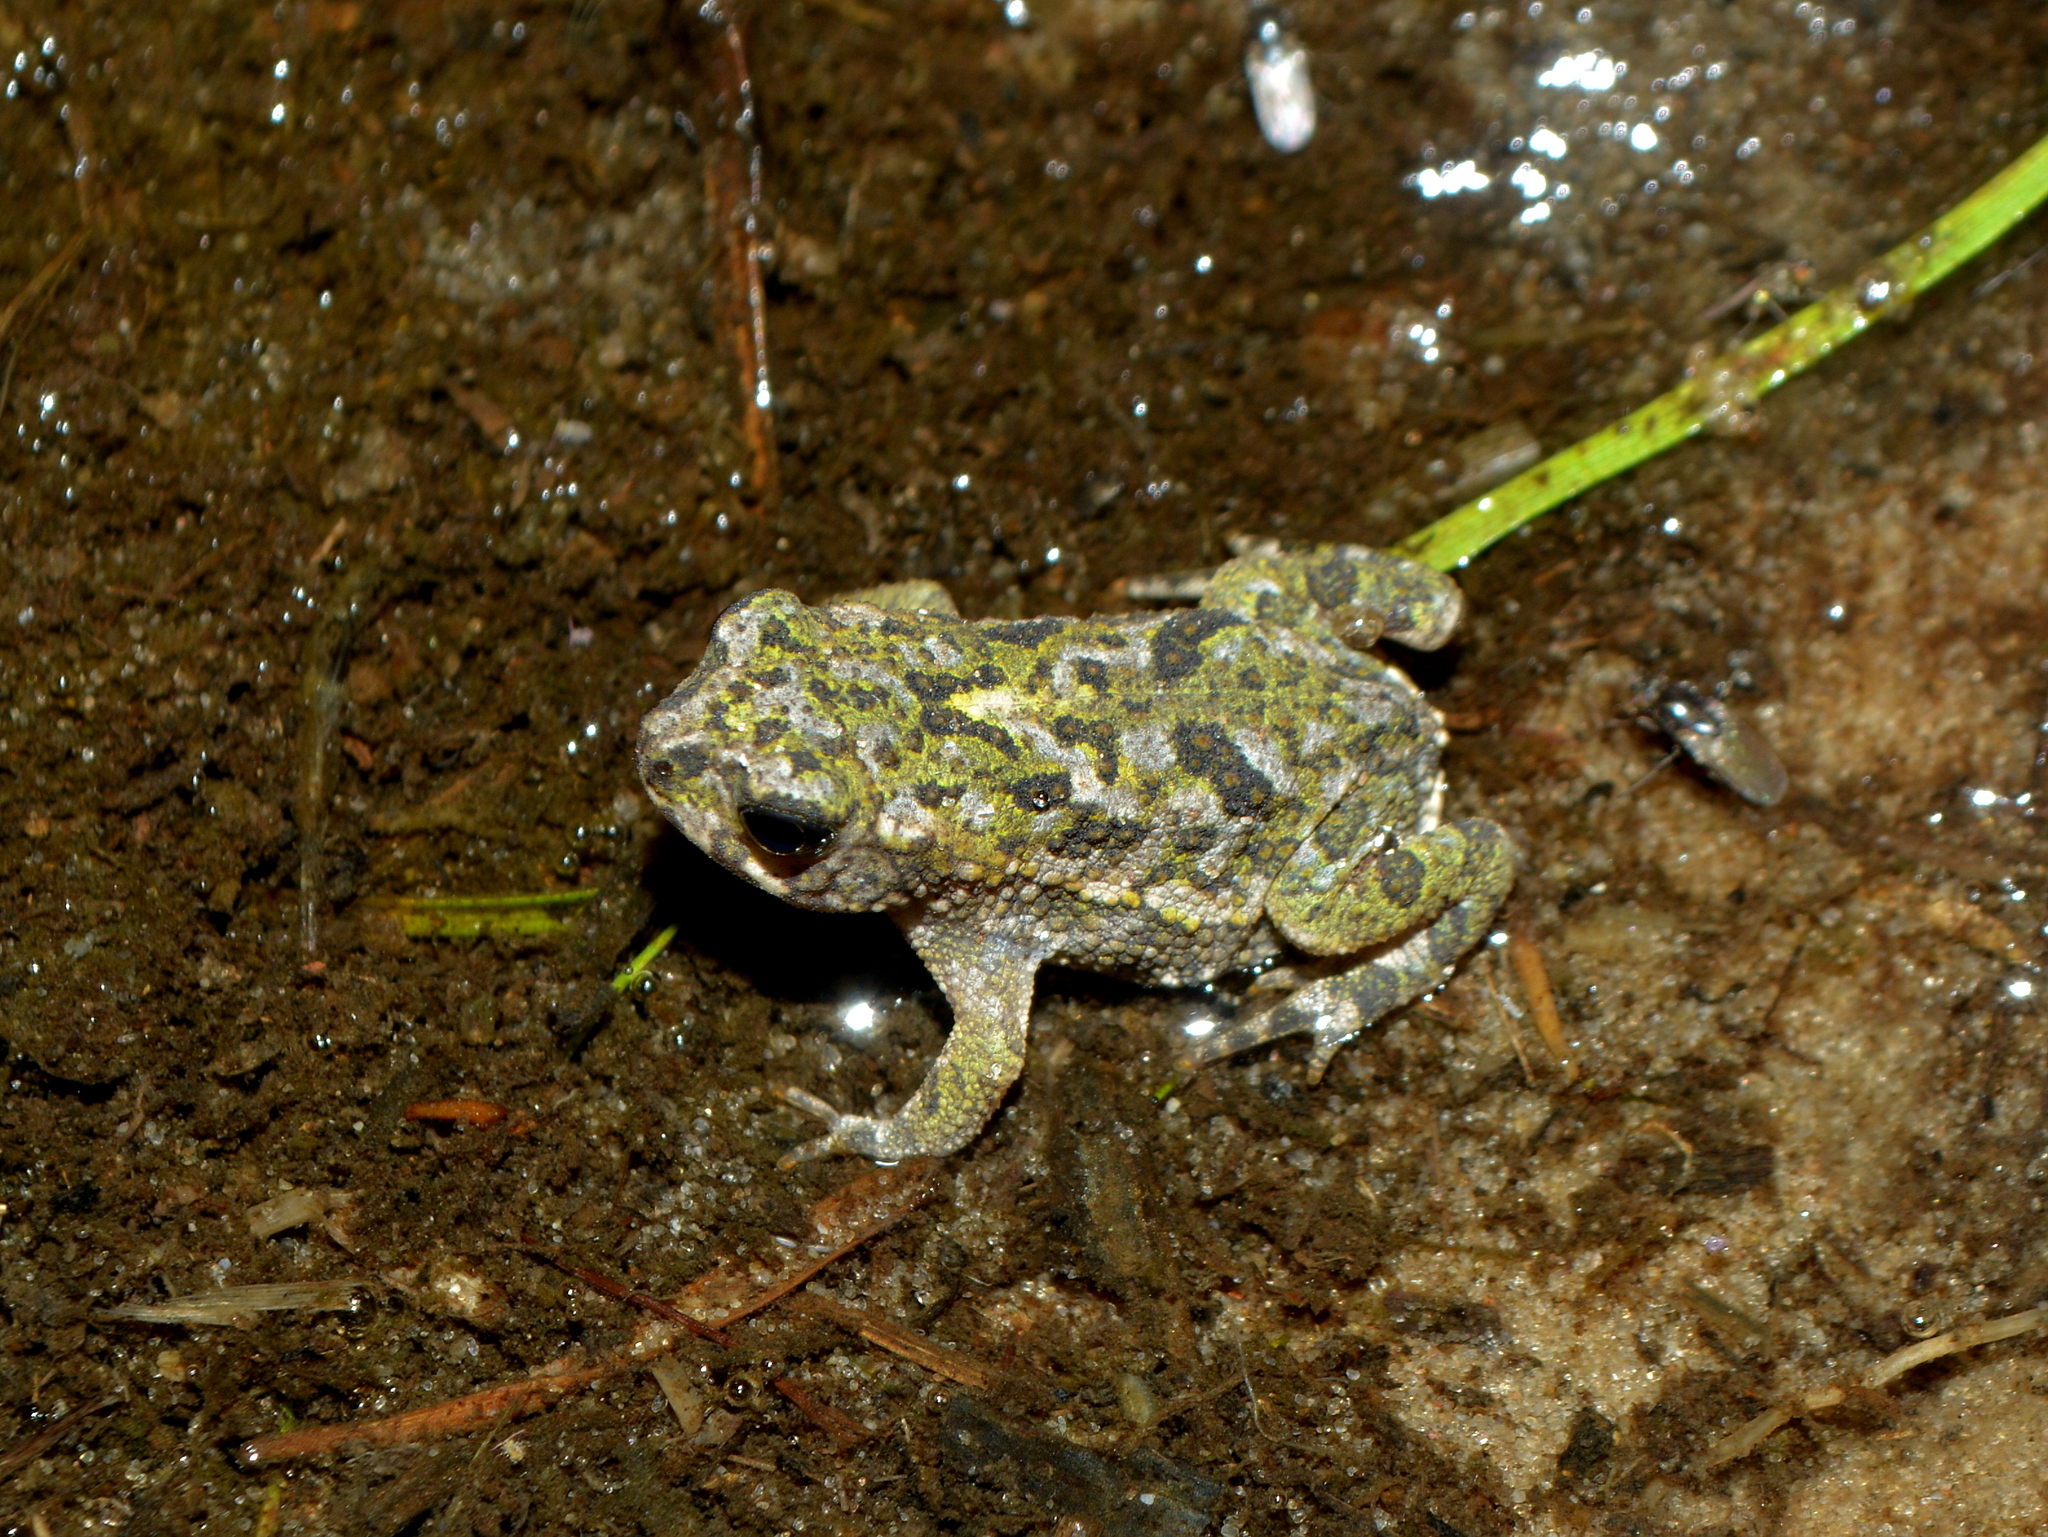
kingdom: Animalia
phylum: Chordata
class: Amphibia
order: Anura
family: Bufonidae
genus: Rhinella
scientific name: Rhinella dorbignyi
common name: D´orbigny’s toad
